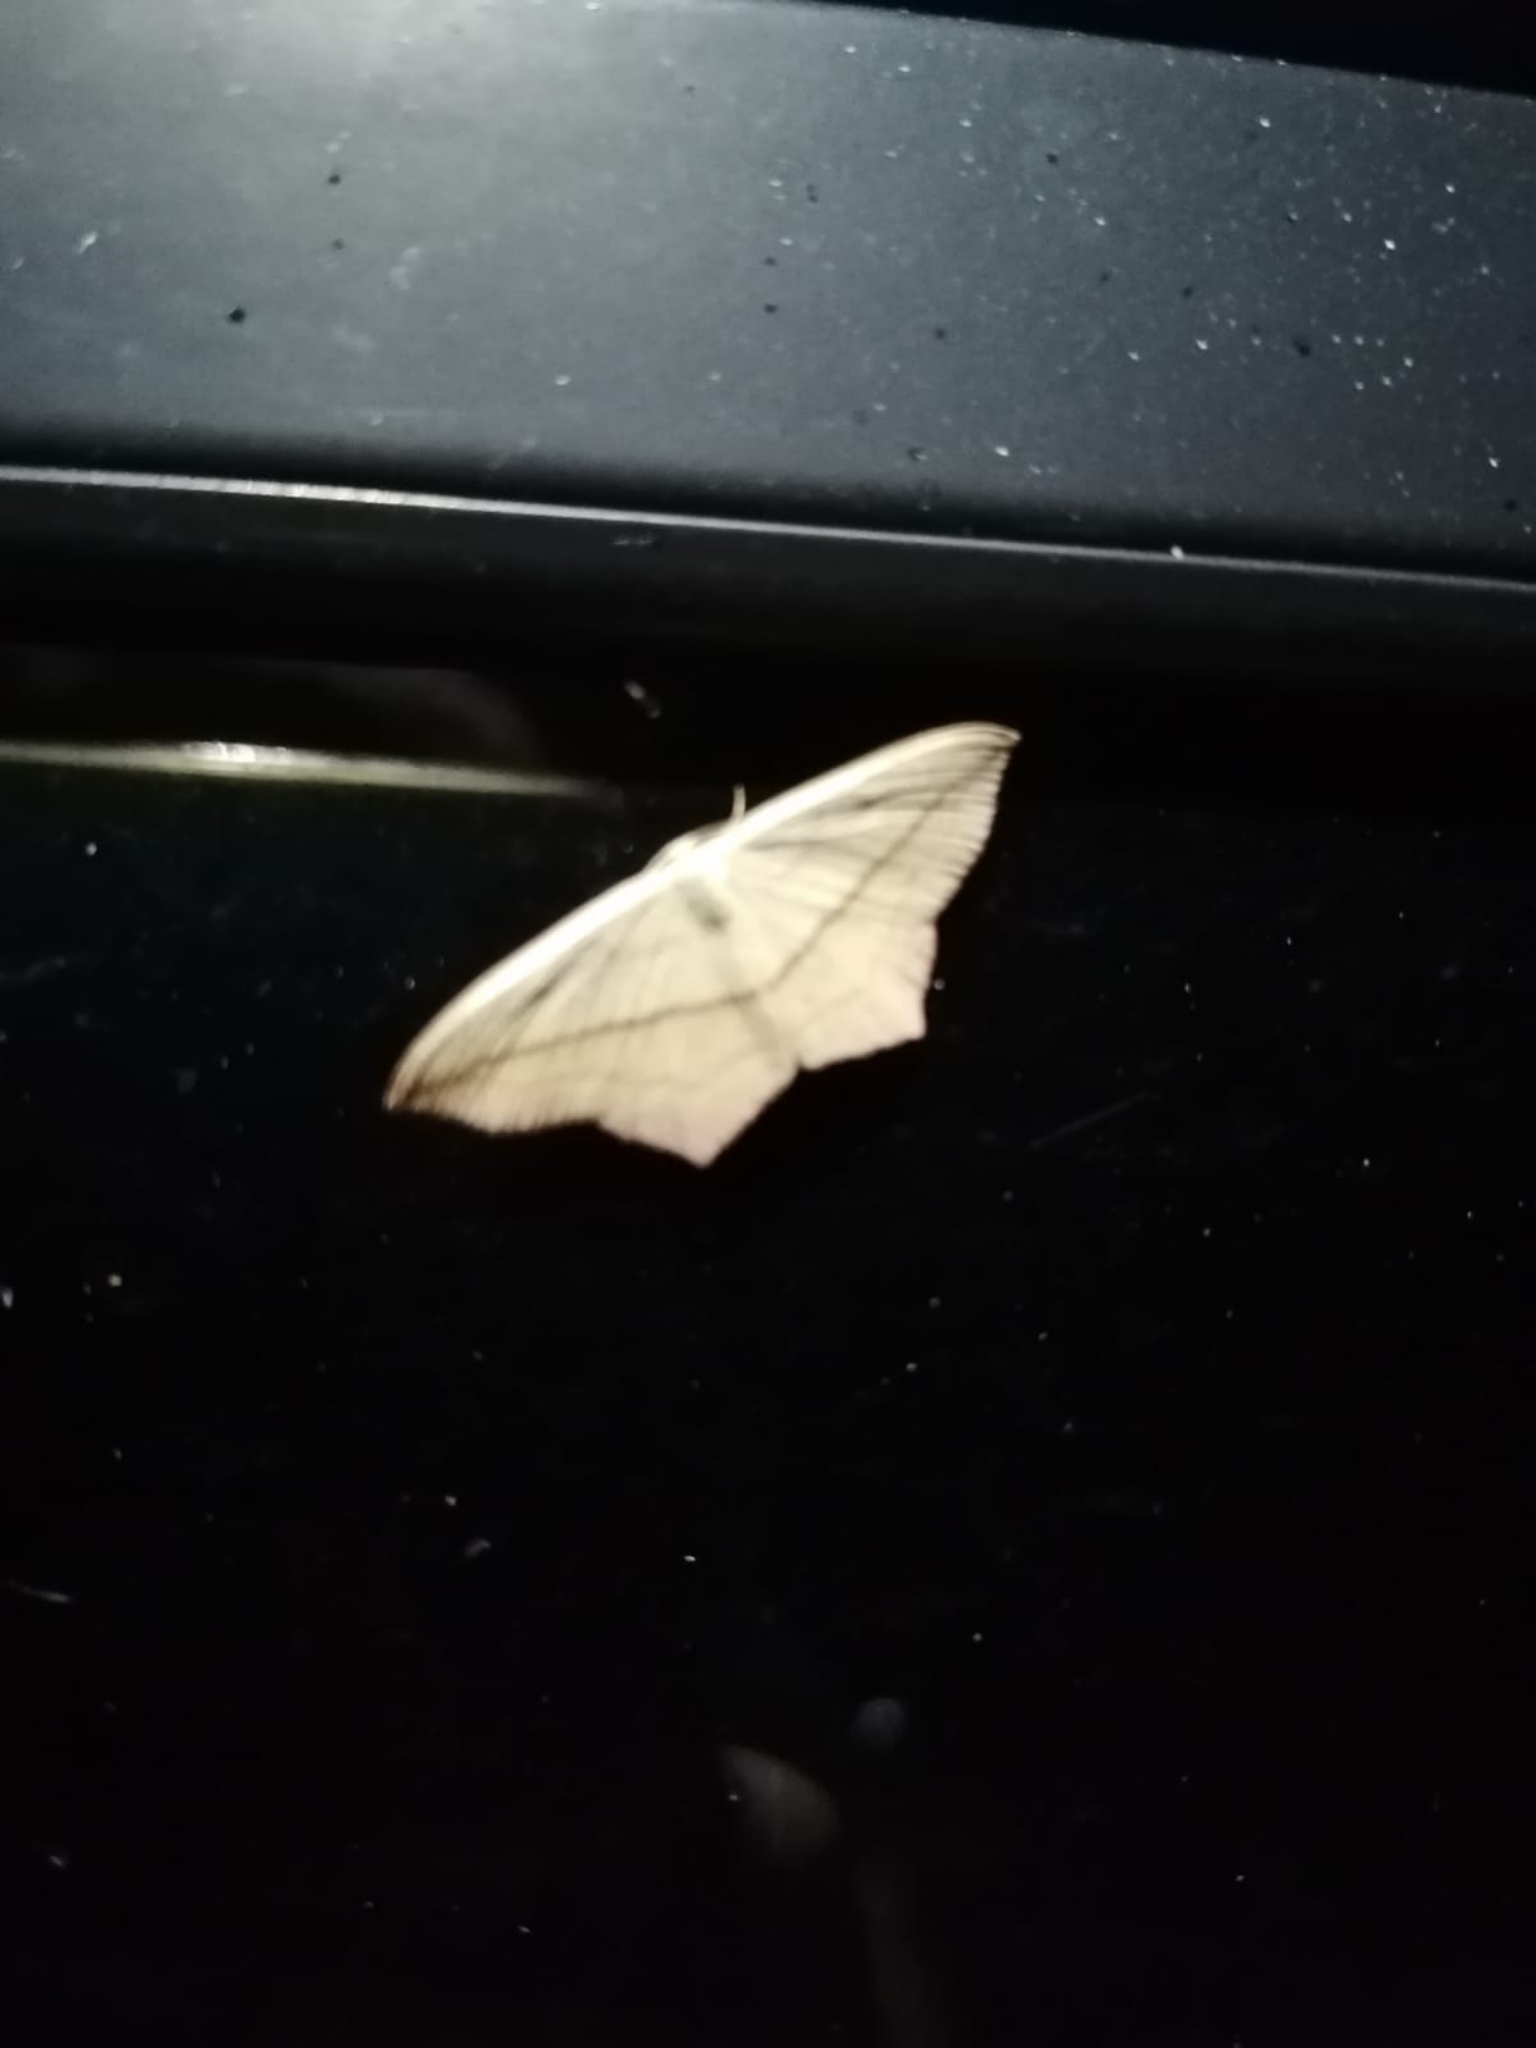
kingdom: Animalia
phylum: Arthropoda
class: Insecta
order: Lepidoptera
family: Geometridae
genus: Timandra
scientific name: Timandra comae
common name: Blood-vein
